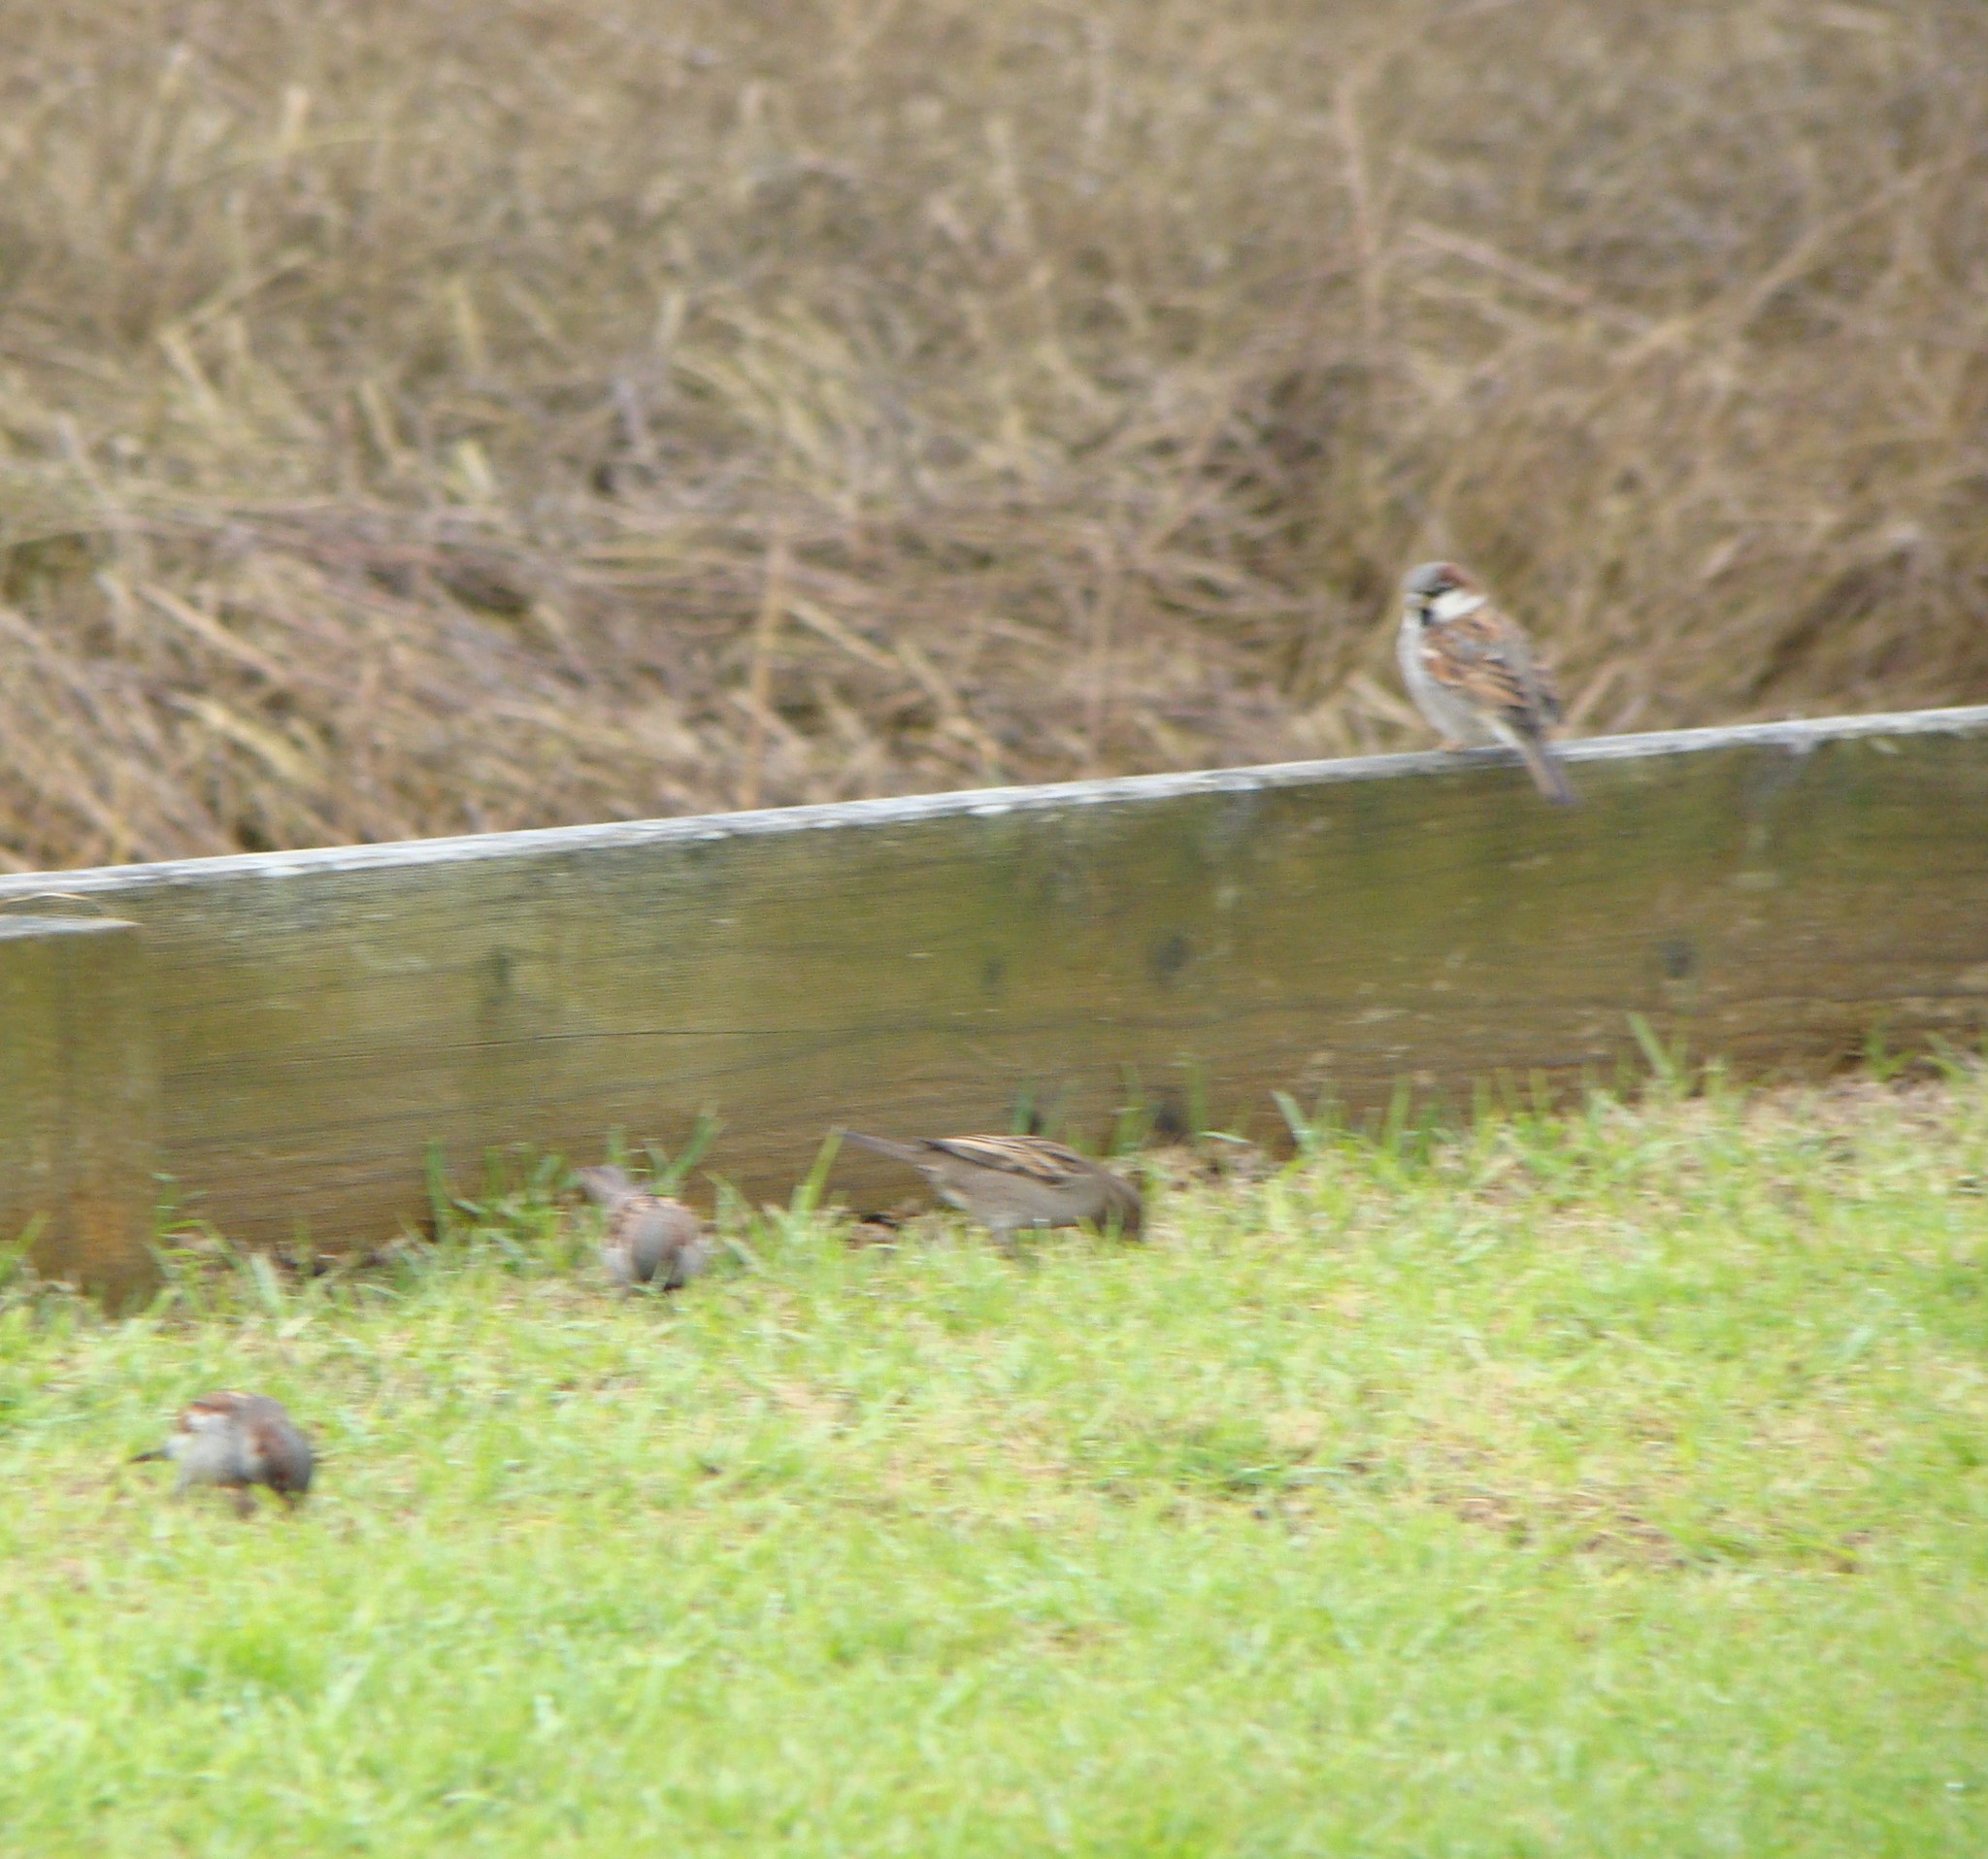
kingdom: Animalia
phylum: Chordata
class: Aves
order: Passeriformes
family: Passeridae
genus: Passer
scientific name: Passer domesticus
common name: House sparrow
